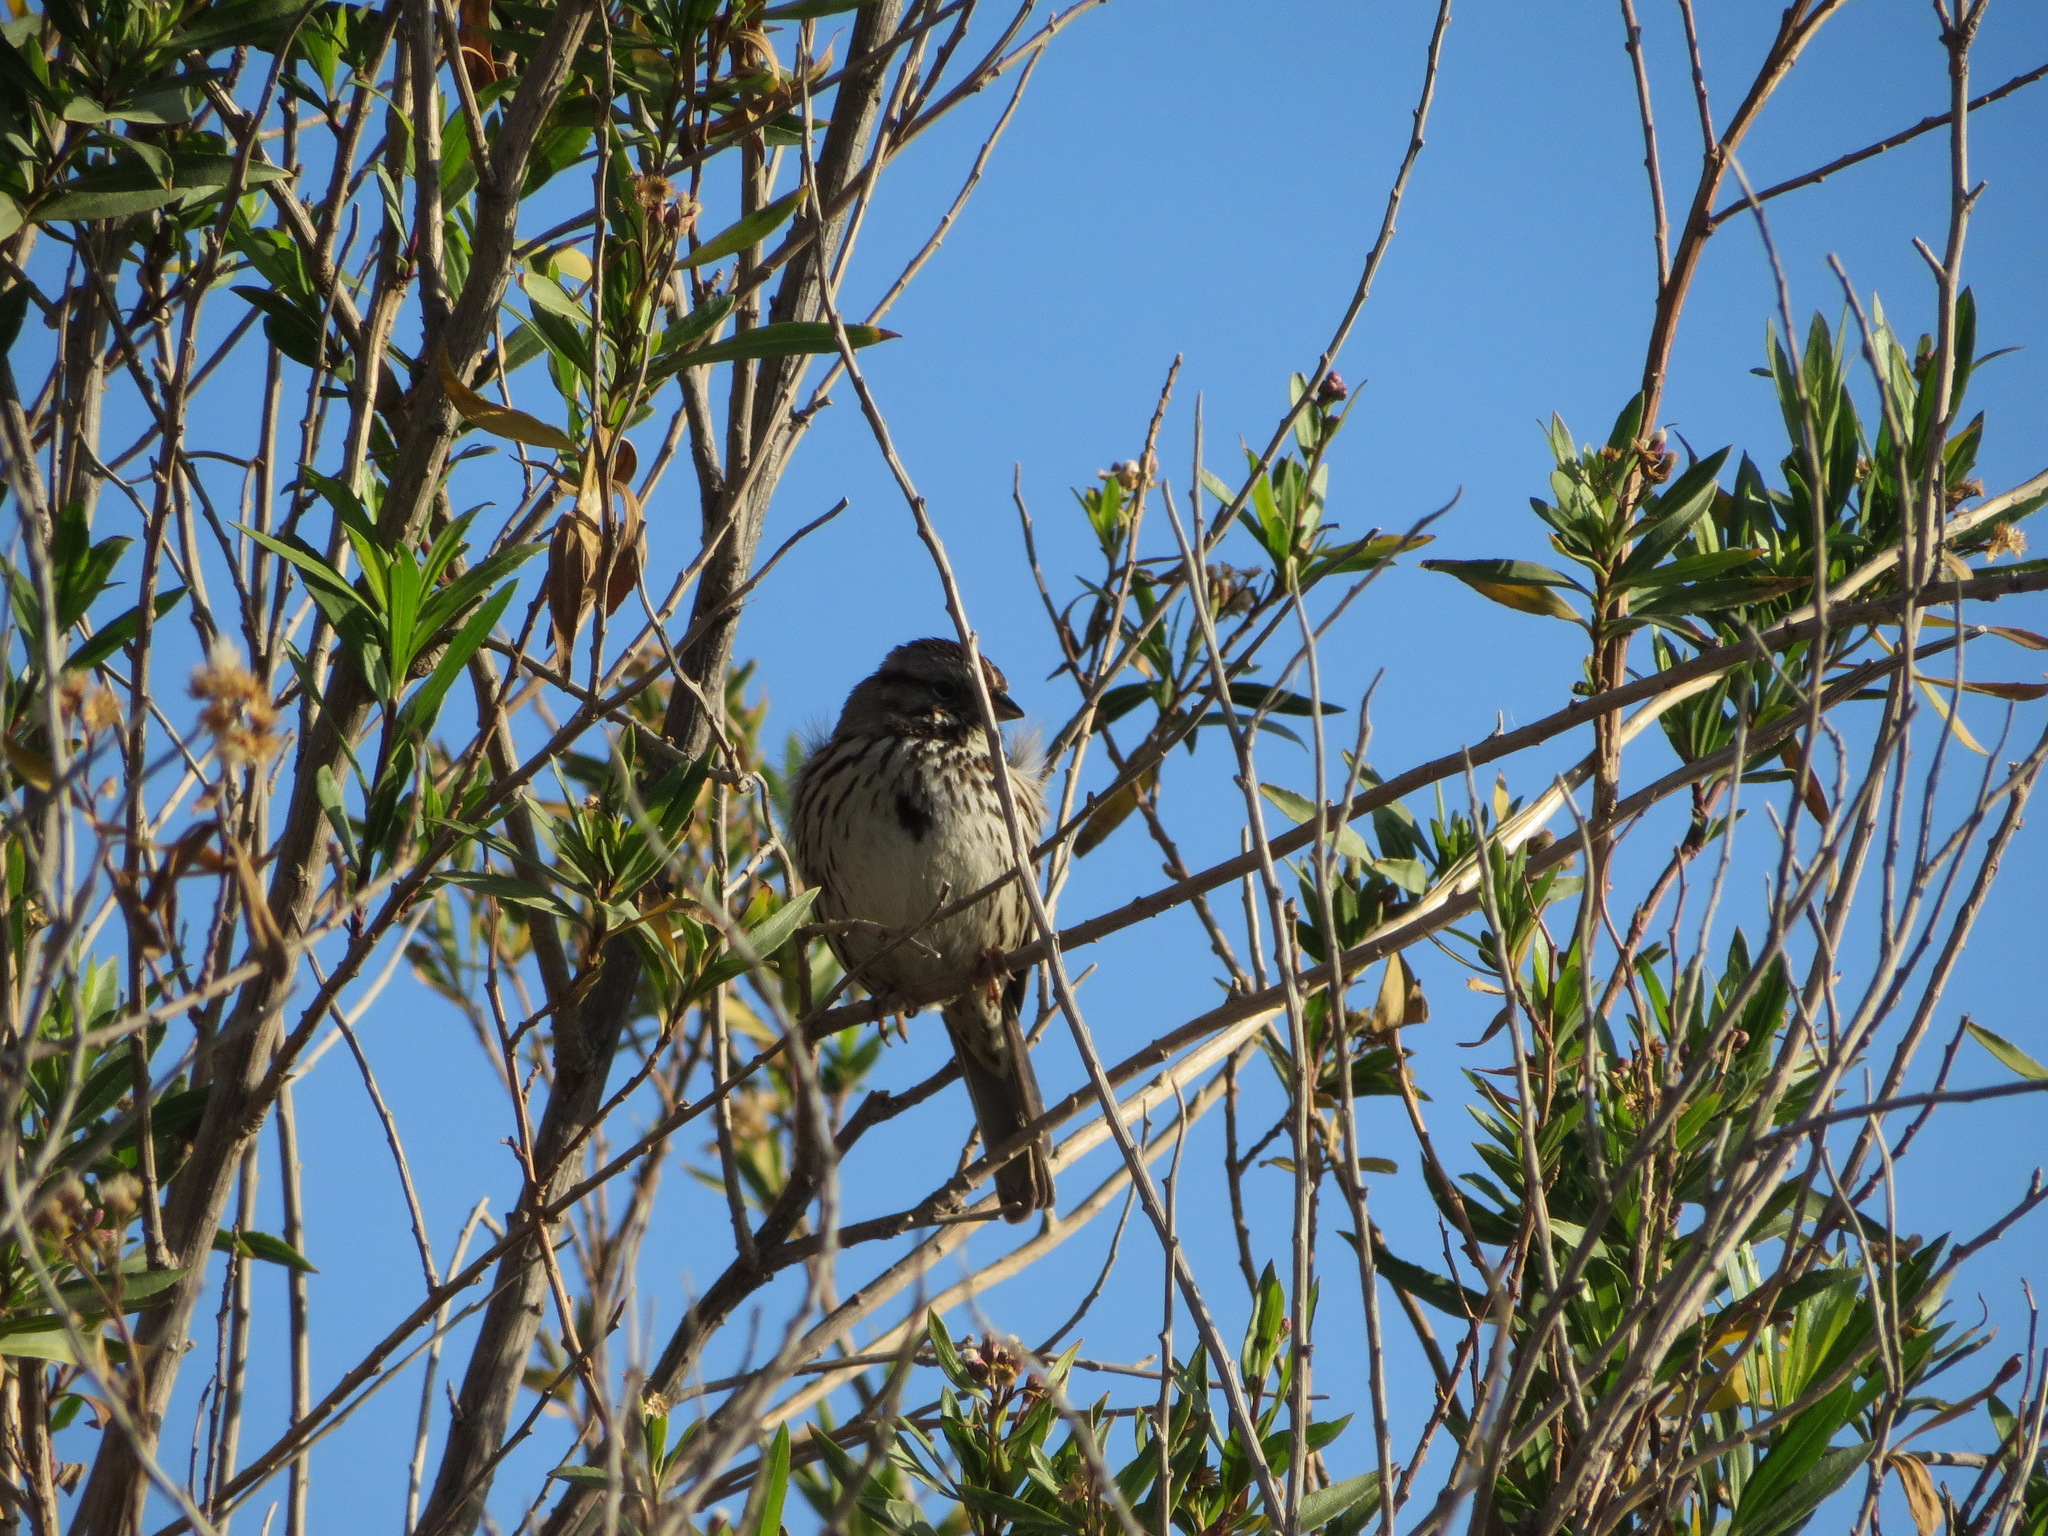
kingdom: Animalia
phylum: Chordata
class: Aves
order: Passeriformes
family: Passerellidae
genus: Melospiza
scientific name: Melospiza melodia
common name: Song sparrow
